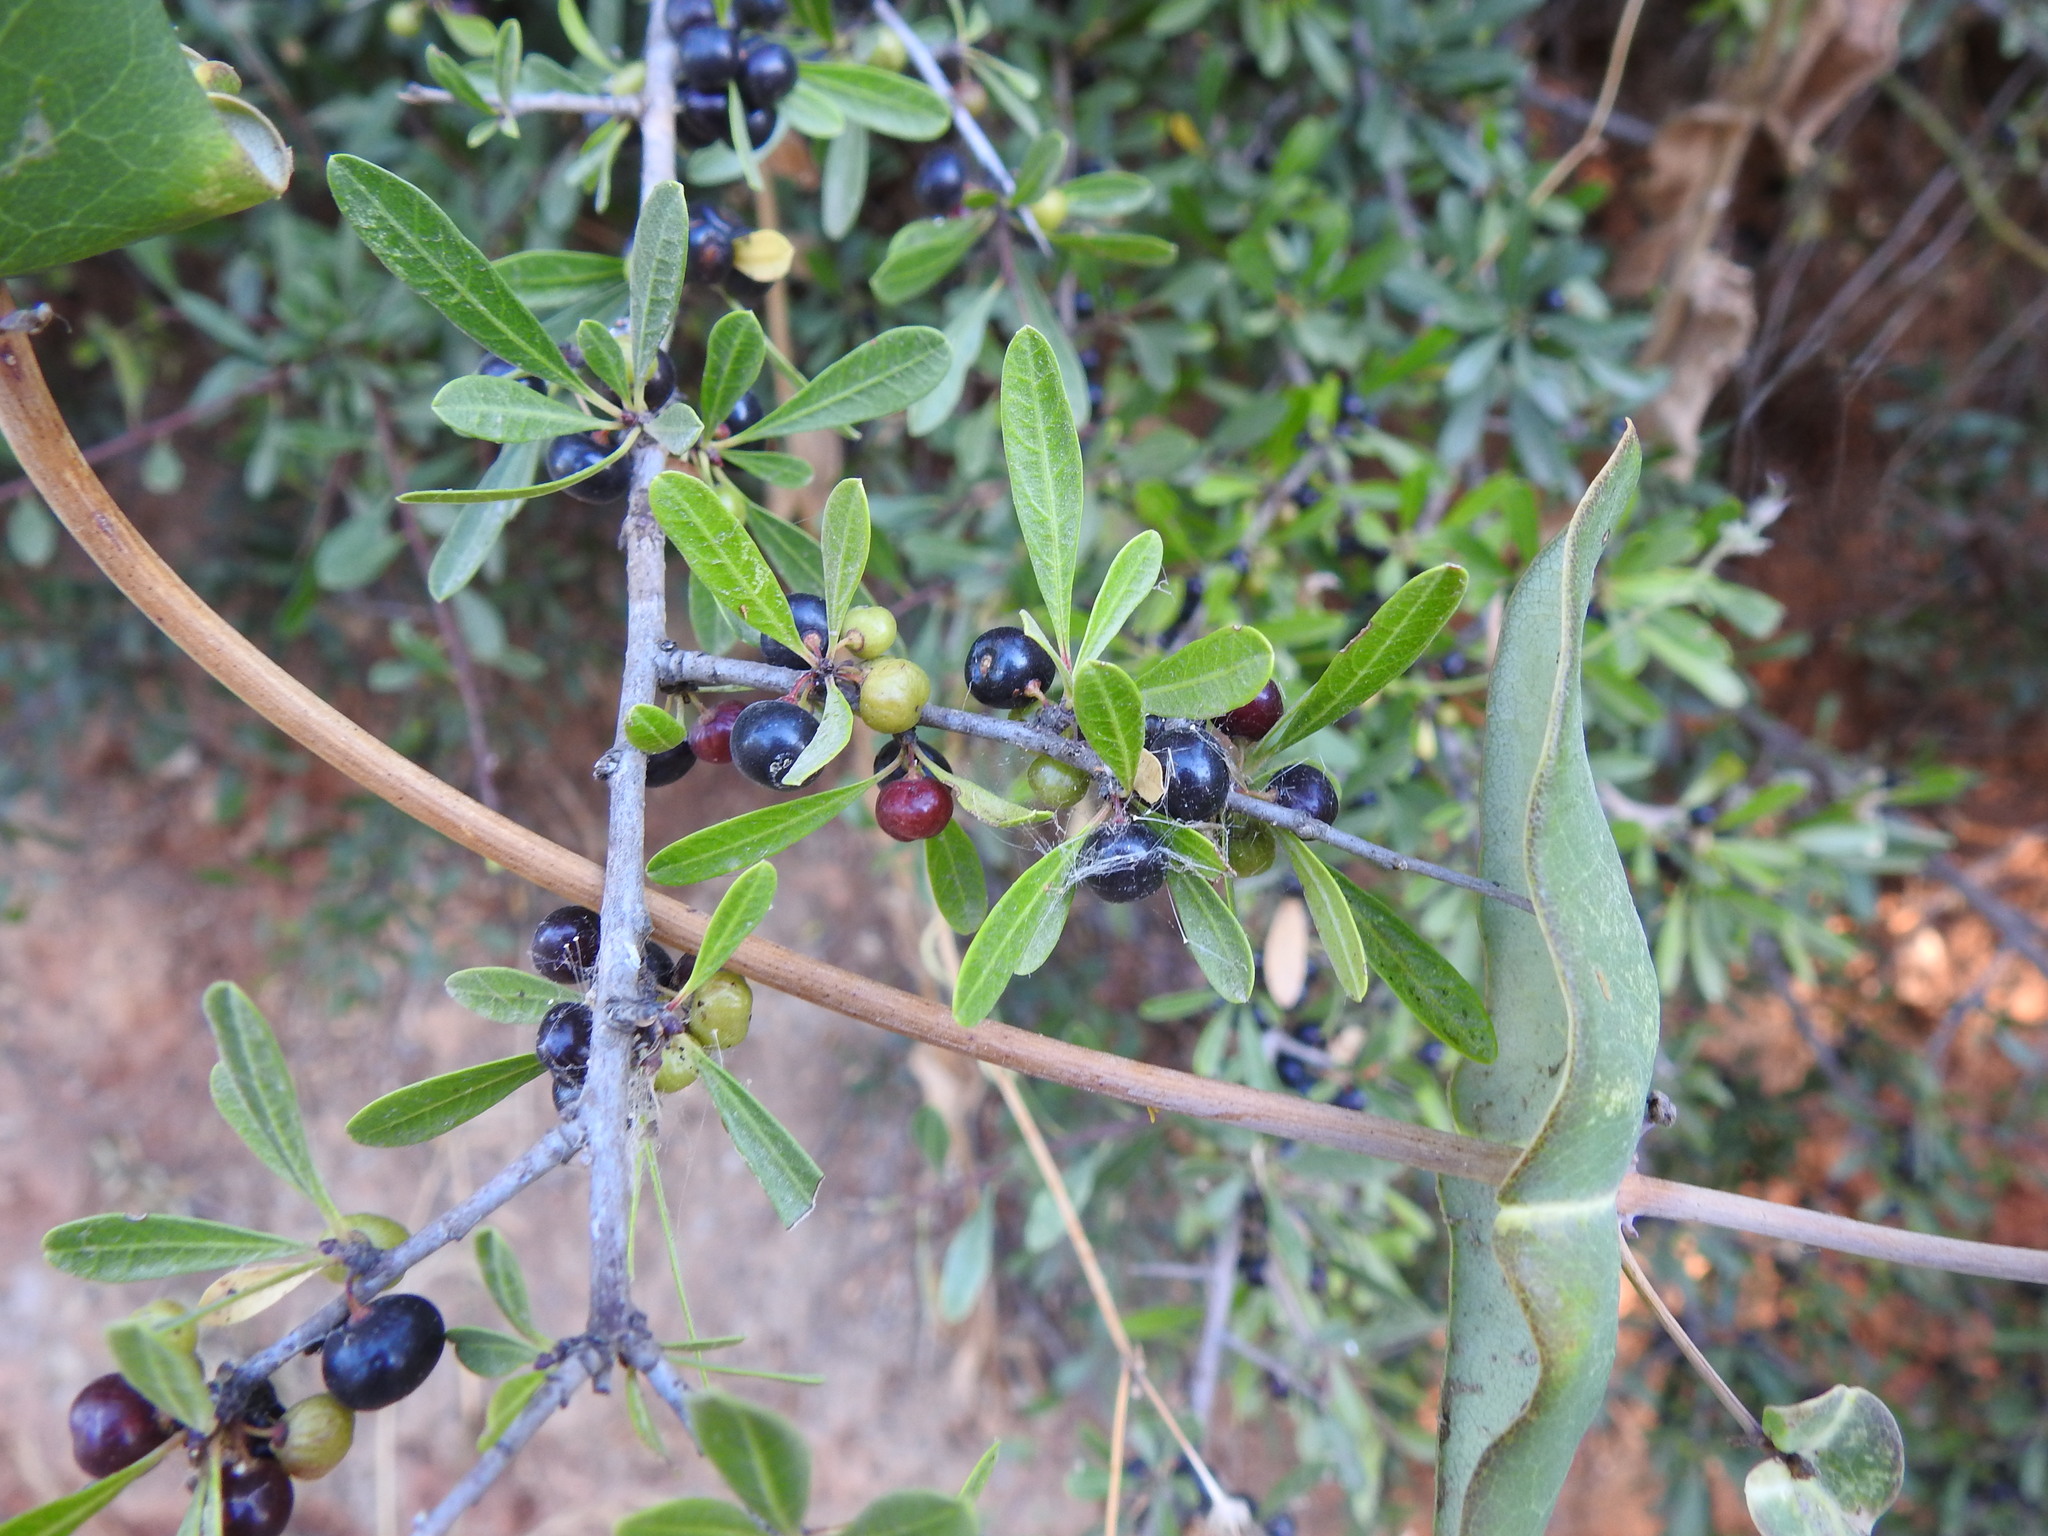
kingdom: Plantae
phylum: Tracheophyta
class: Magnoliopsida
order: Rosales
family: Rhamnaceae
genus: Rhamnus
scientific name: Rhamnus oleoides
